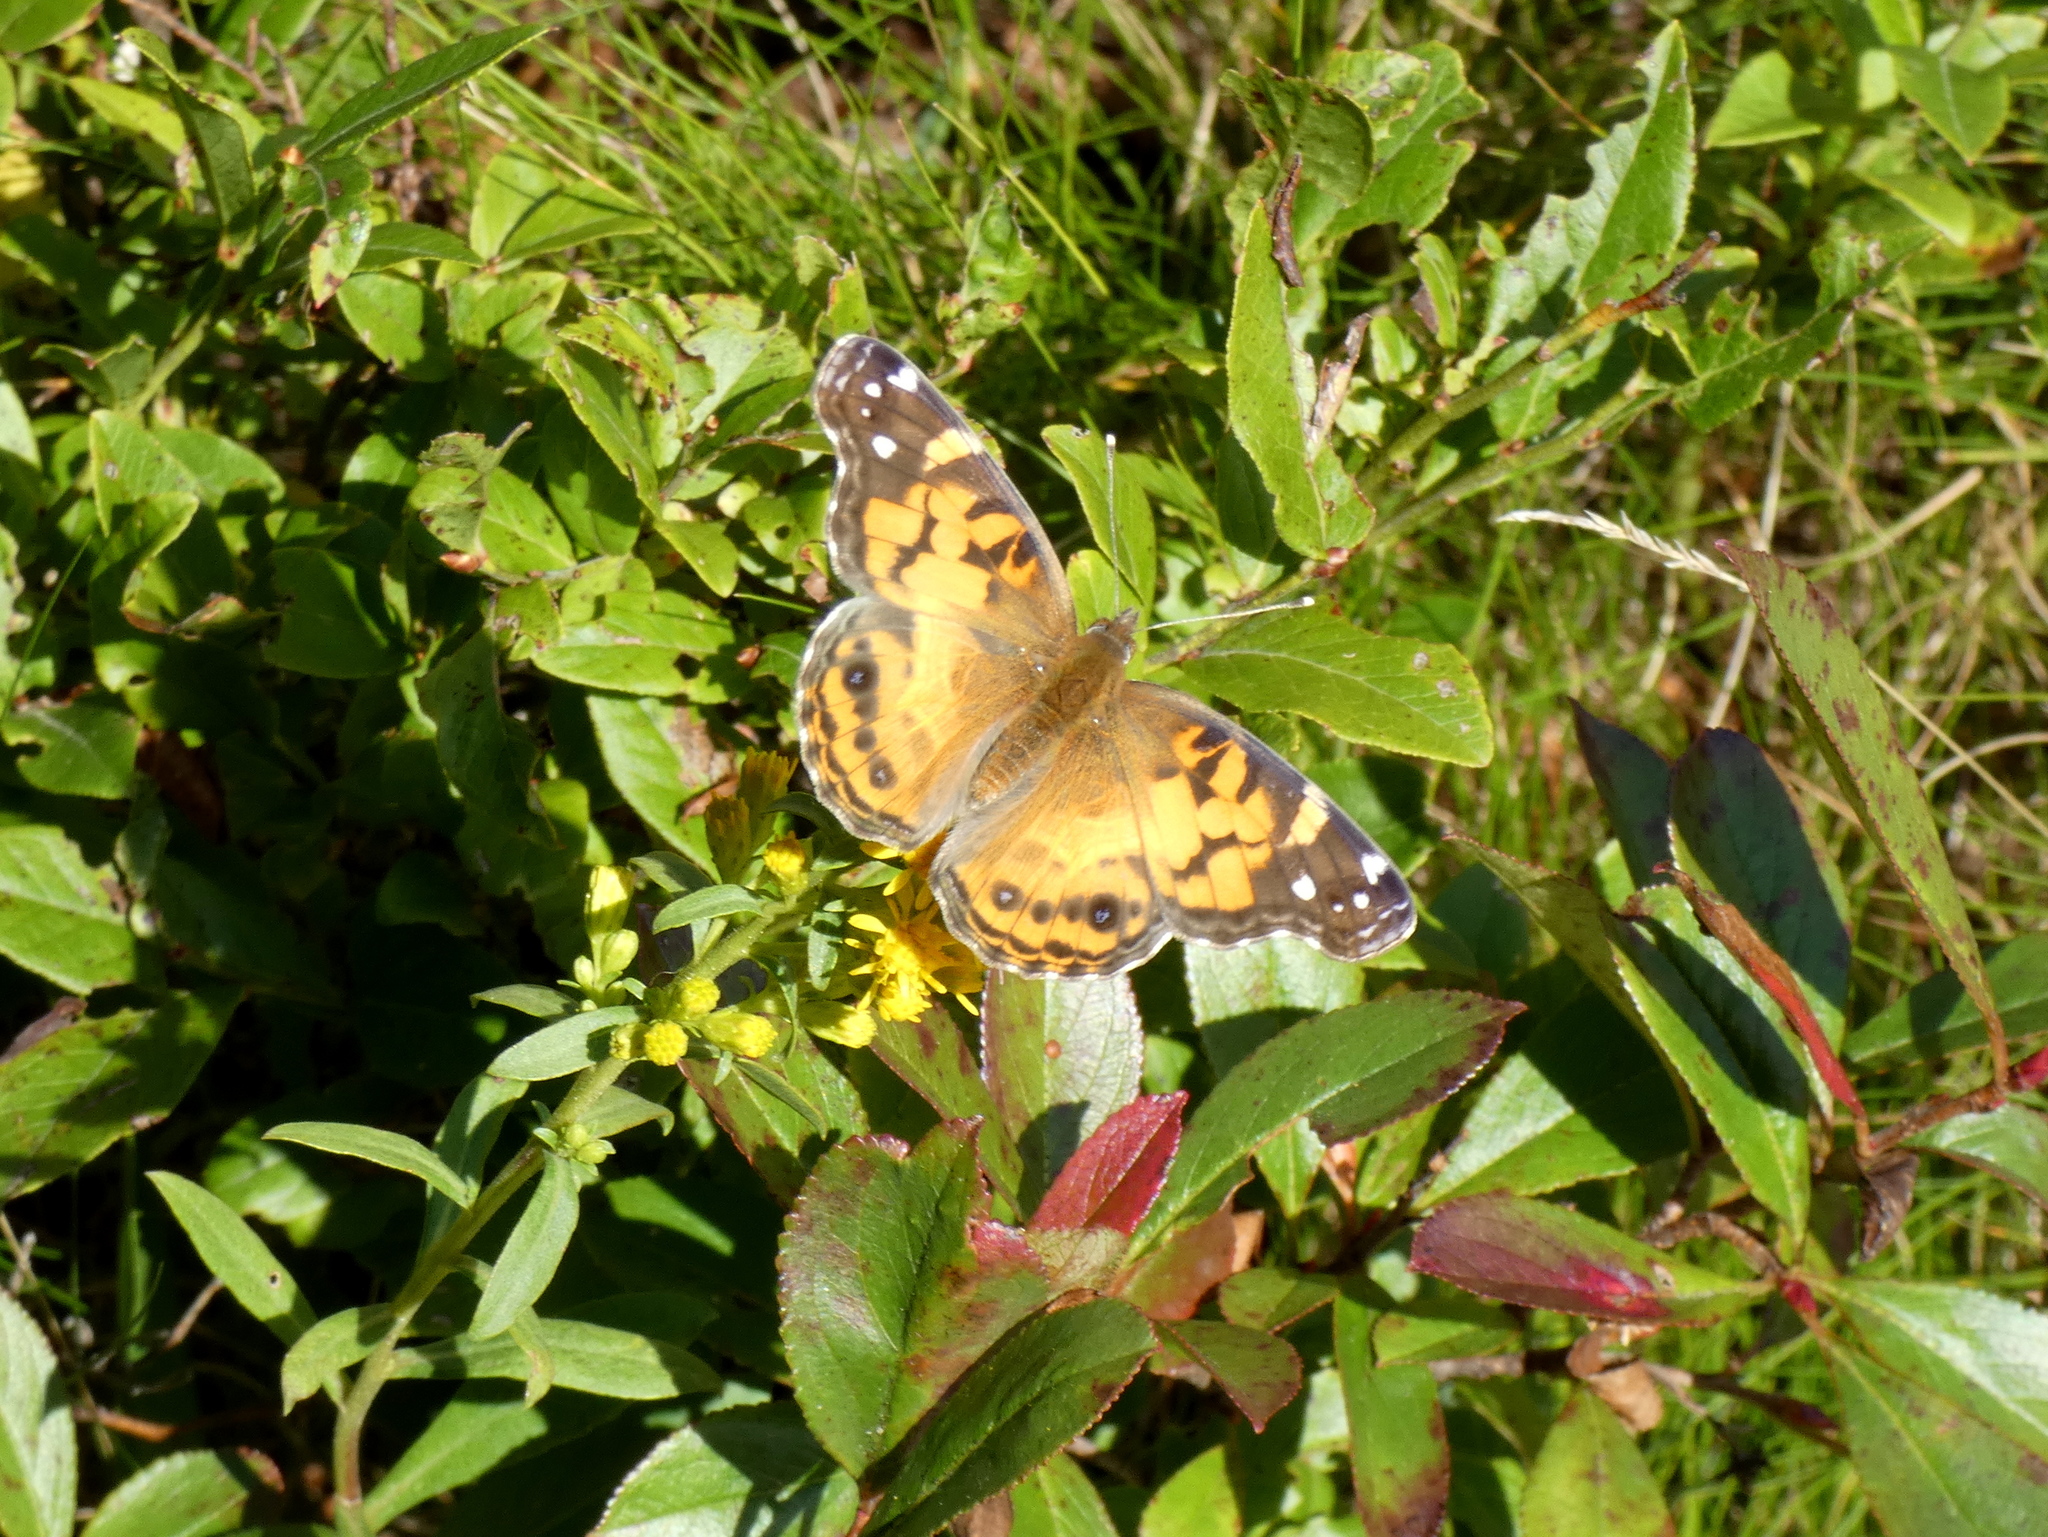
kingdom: Animalia
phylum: Arthropoda
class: Insecta
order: Lepidoptera
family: Nymphalidae
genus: Vanessa
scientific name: Vanessa virginiensis
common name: American lady
